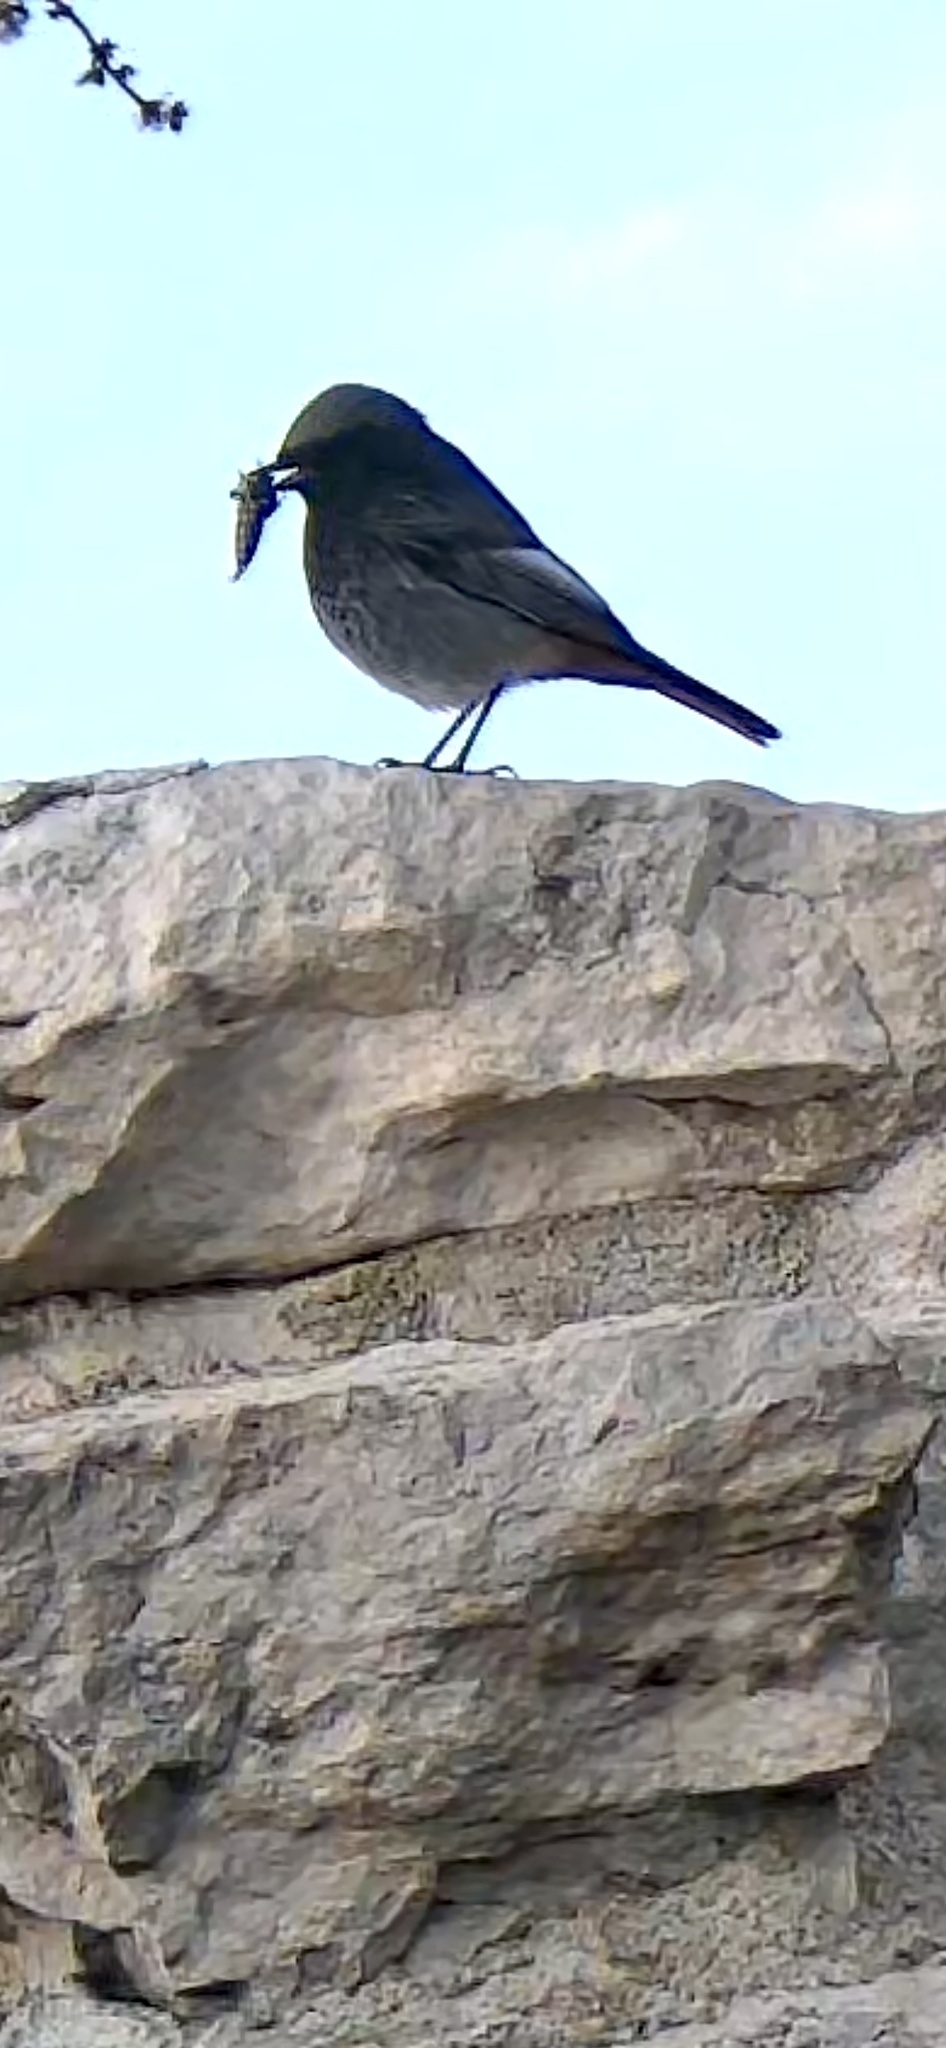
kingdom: Animalia
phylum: Chordata
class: Aves
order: Passeriformes
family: Muscicapidae
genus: Phoenicurus
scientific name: Phoenicurus ochruros
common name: Black redstart
